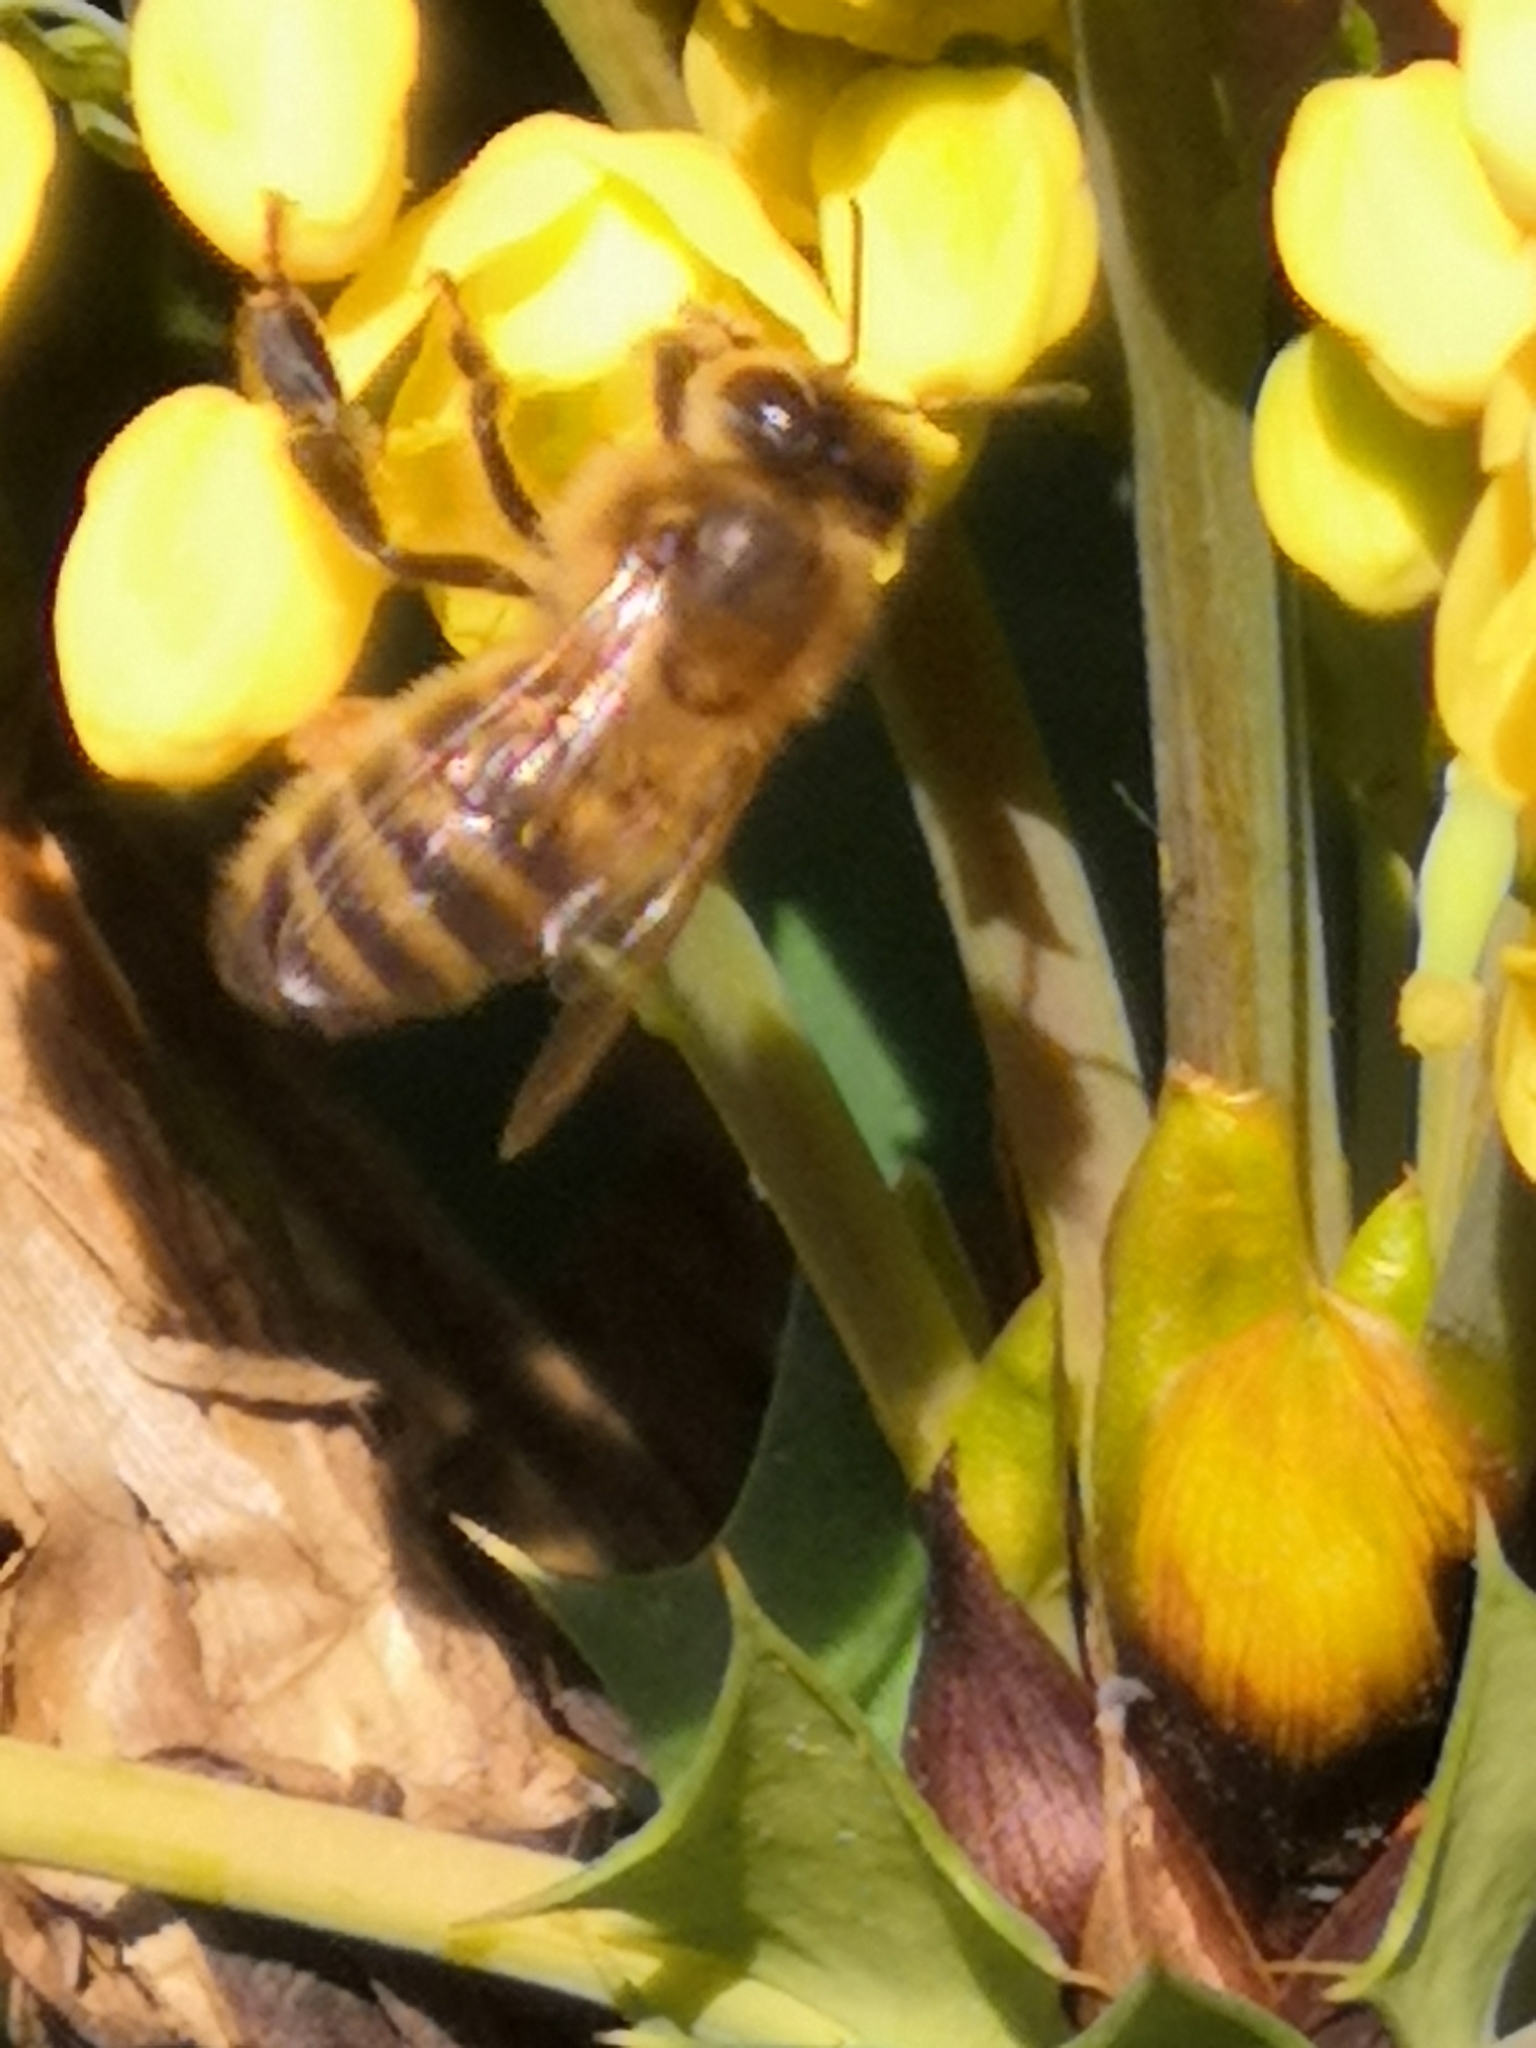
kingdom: Animalia
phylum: Arthropoda
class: Insecta
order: Hymenoptera
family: Apidae
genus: Apis
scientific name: Apis mellifera
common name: Honey bee
